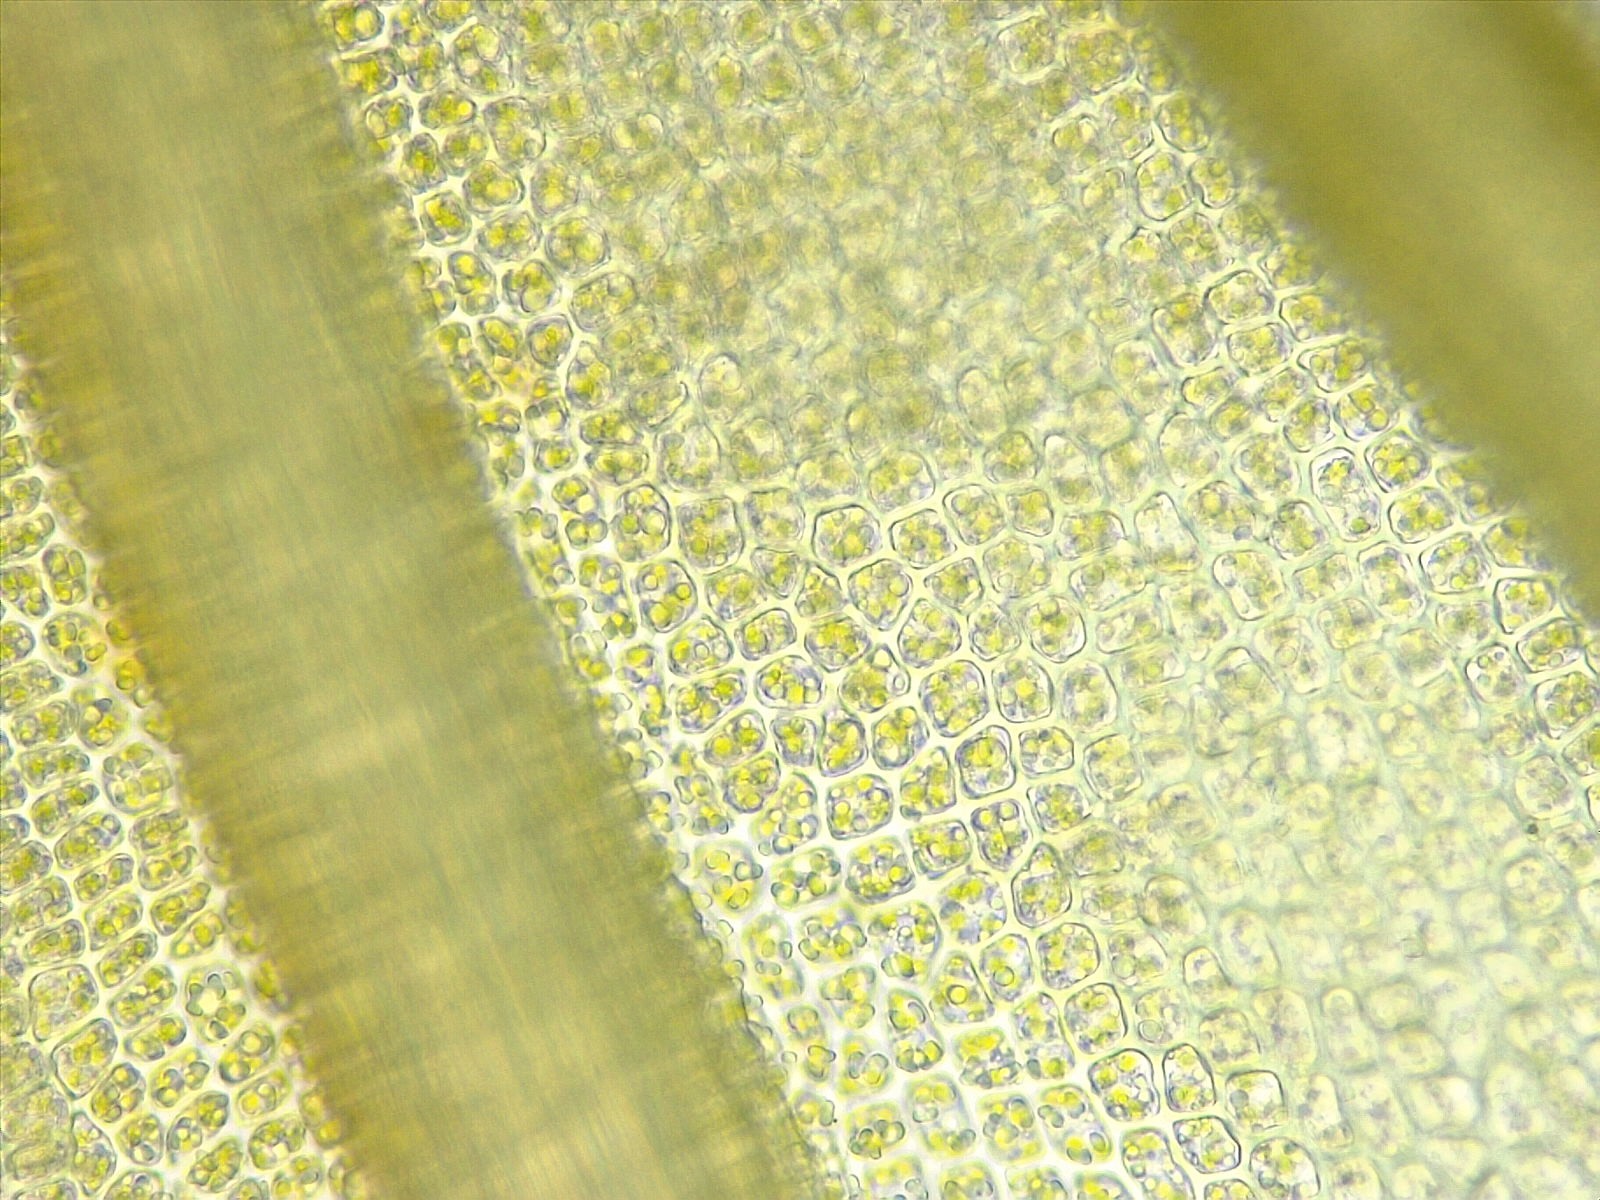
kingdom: Plantae
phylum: Bryophyta
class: Bryopsida
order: Pottiales
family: Pottiaceae
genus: Barbula
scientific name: Barbula unguiculata
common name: Prickly beard moss
